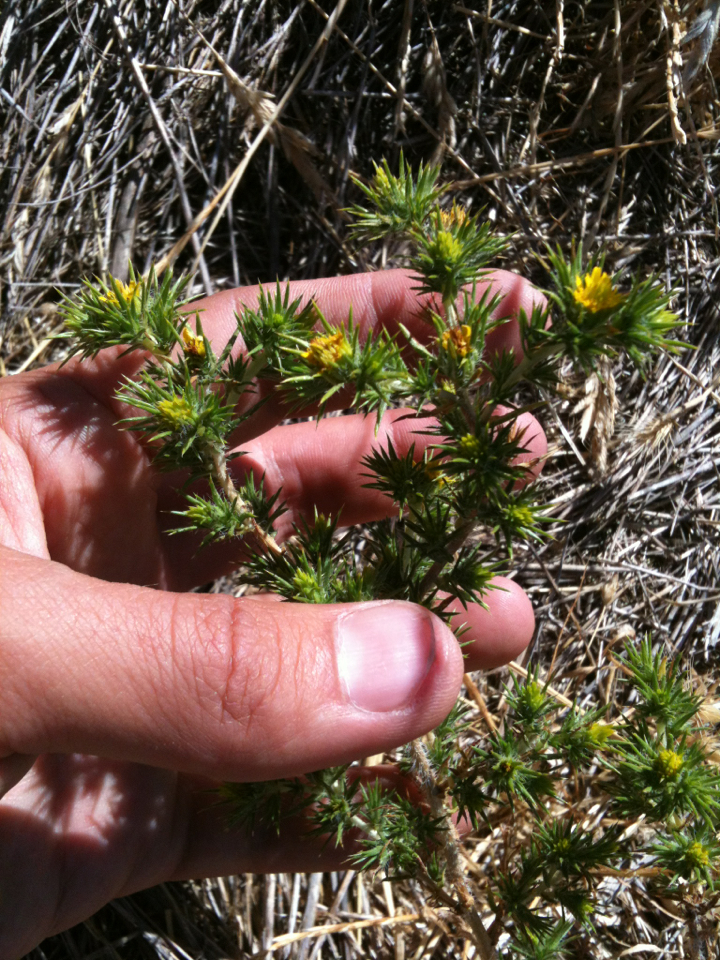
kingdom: Plantae
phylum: Tracheophyta
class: Magnoliopsida
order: Asterales
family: Asteraceae
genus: Centromadia
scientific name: Centromadia pungens
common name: Common spikeweed
